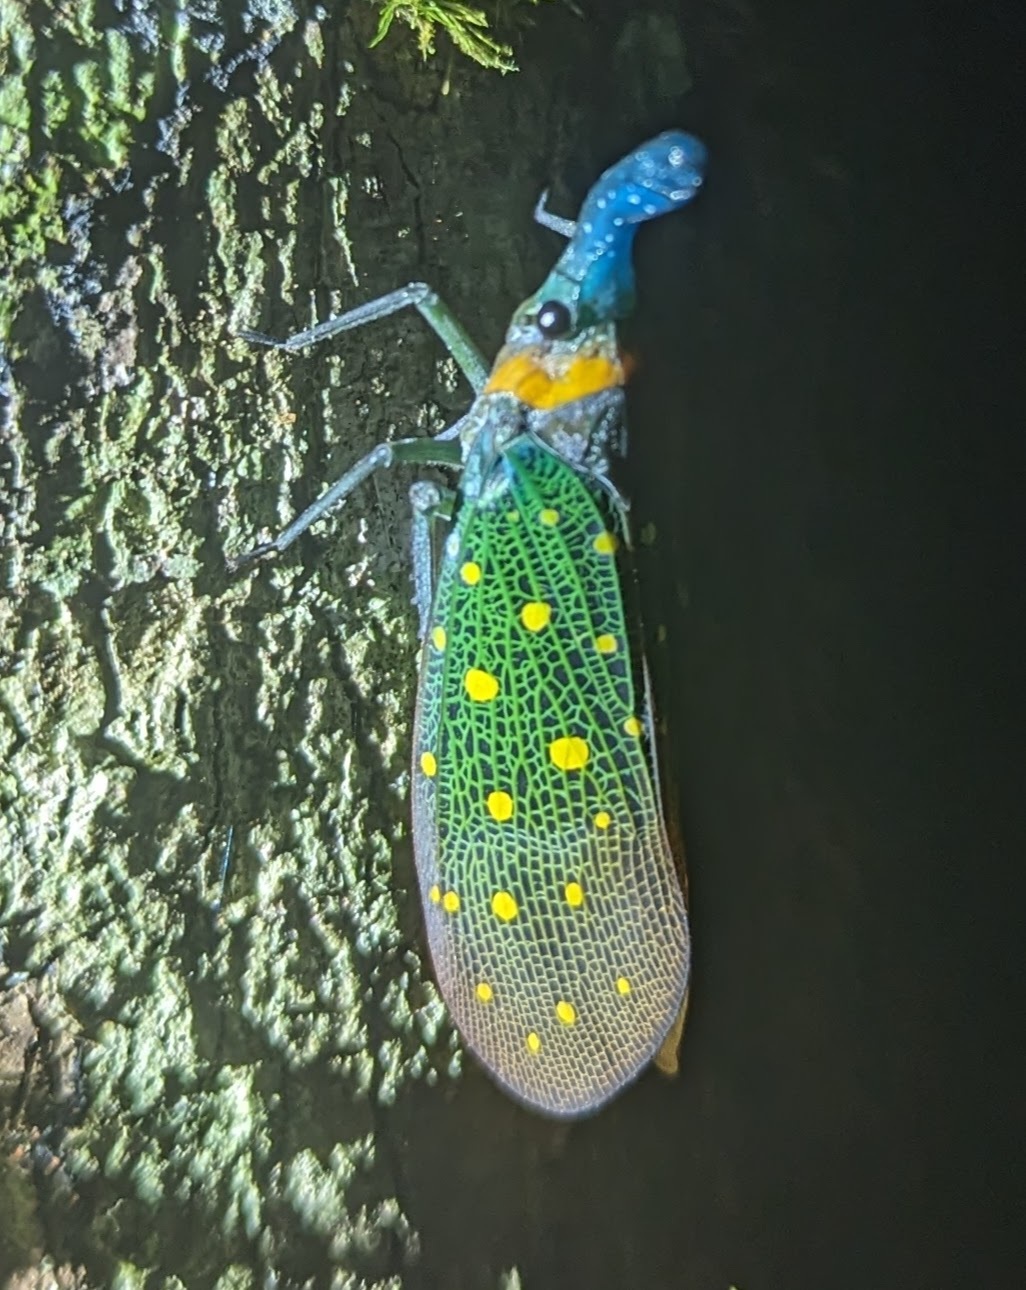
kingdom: Animalia
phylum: Arthropoda
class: Insecta
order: Hemiptera
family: Fulgoridae
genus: Pyrops
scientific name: Pyrops whiteheadi
